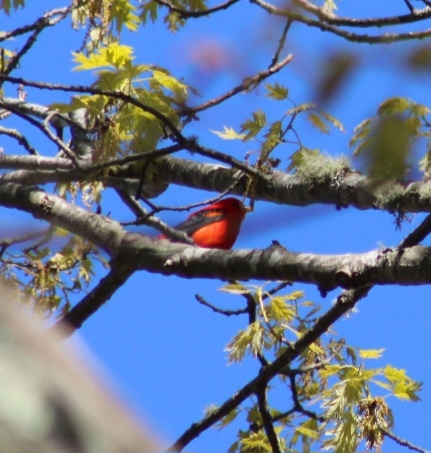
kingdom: Animalia
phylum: Chordata
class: Aves
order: Passeriformes
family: Cardinalidae
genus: Piranga
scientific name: Piranga olivacea
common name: Scarlet tanager
